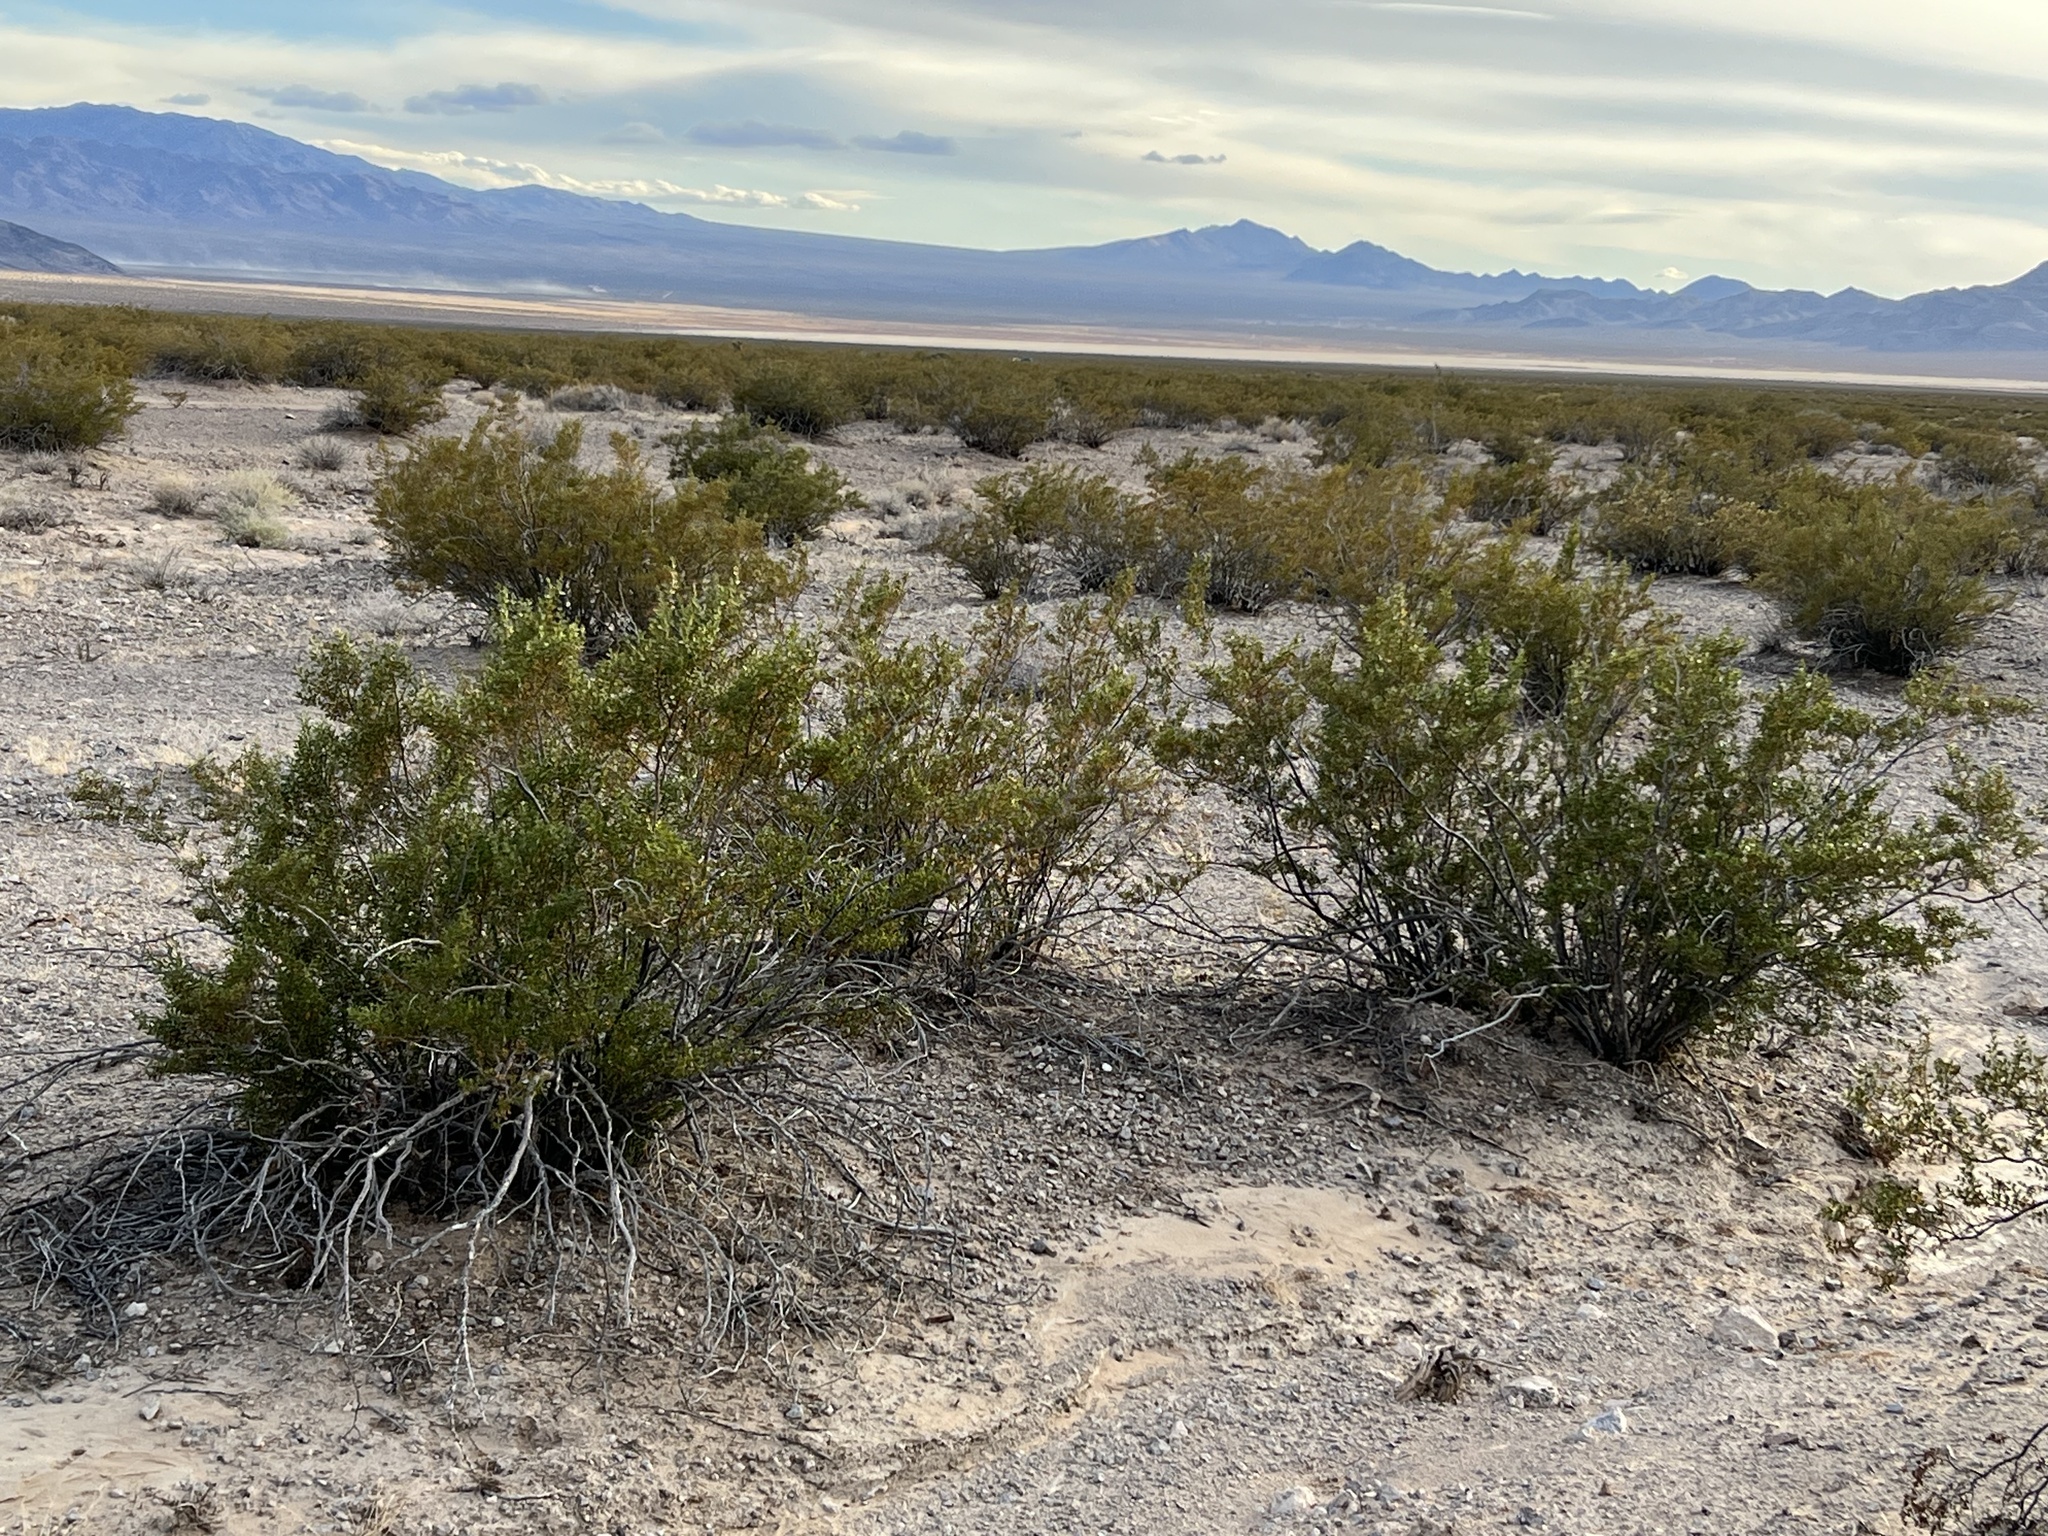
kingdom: Plantae
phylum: Tracheophyta
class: Magnoliopsida
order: Zygophyllales
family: Zygophyllaceae
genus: Larrea
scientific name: Larrea tridentata
